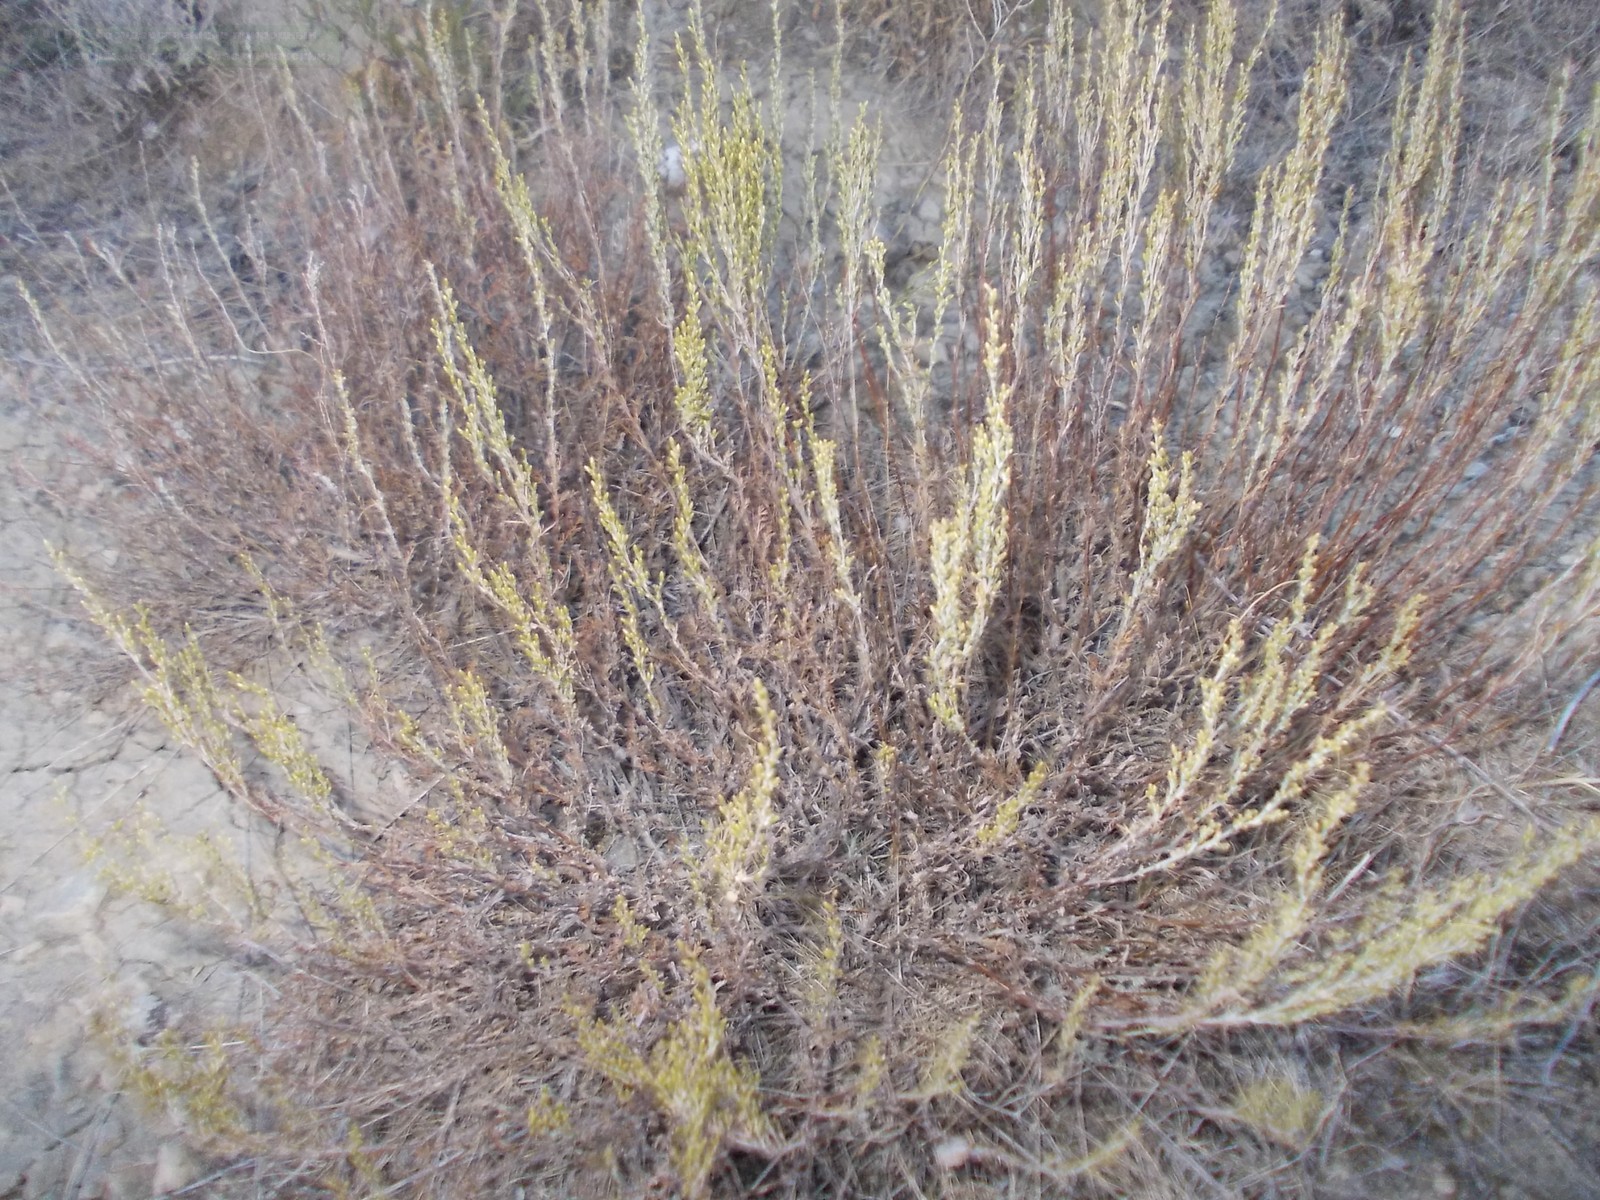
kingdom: Plantae
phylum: Tracheophyta
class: Magnoliopsida
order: Asterales
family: Asteraceae
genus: Artemisia
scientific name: Artemisia pauciflora
